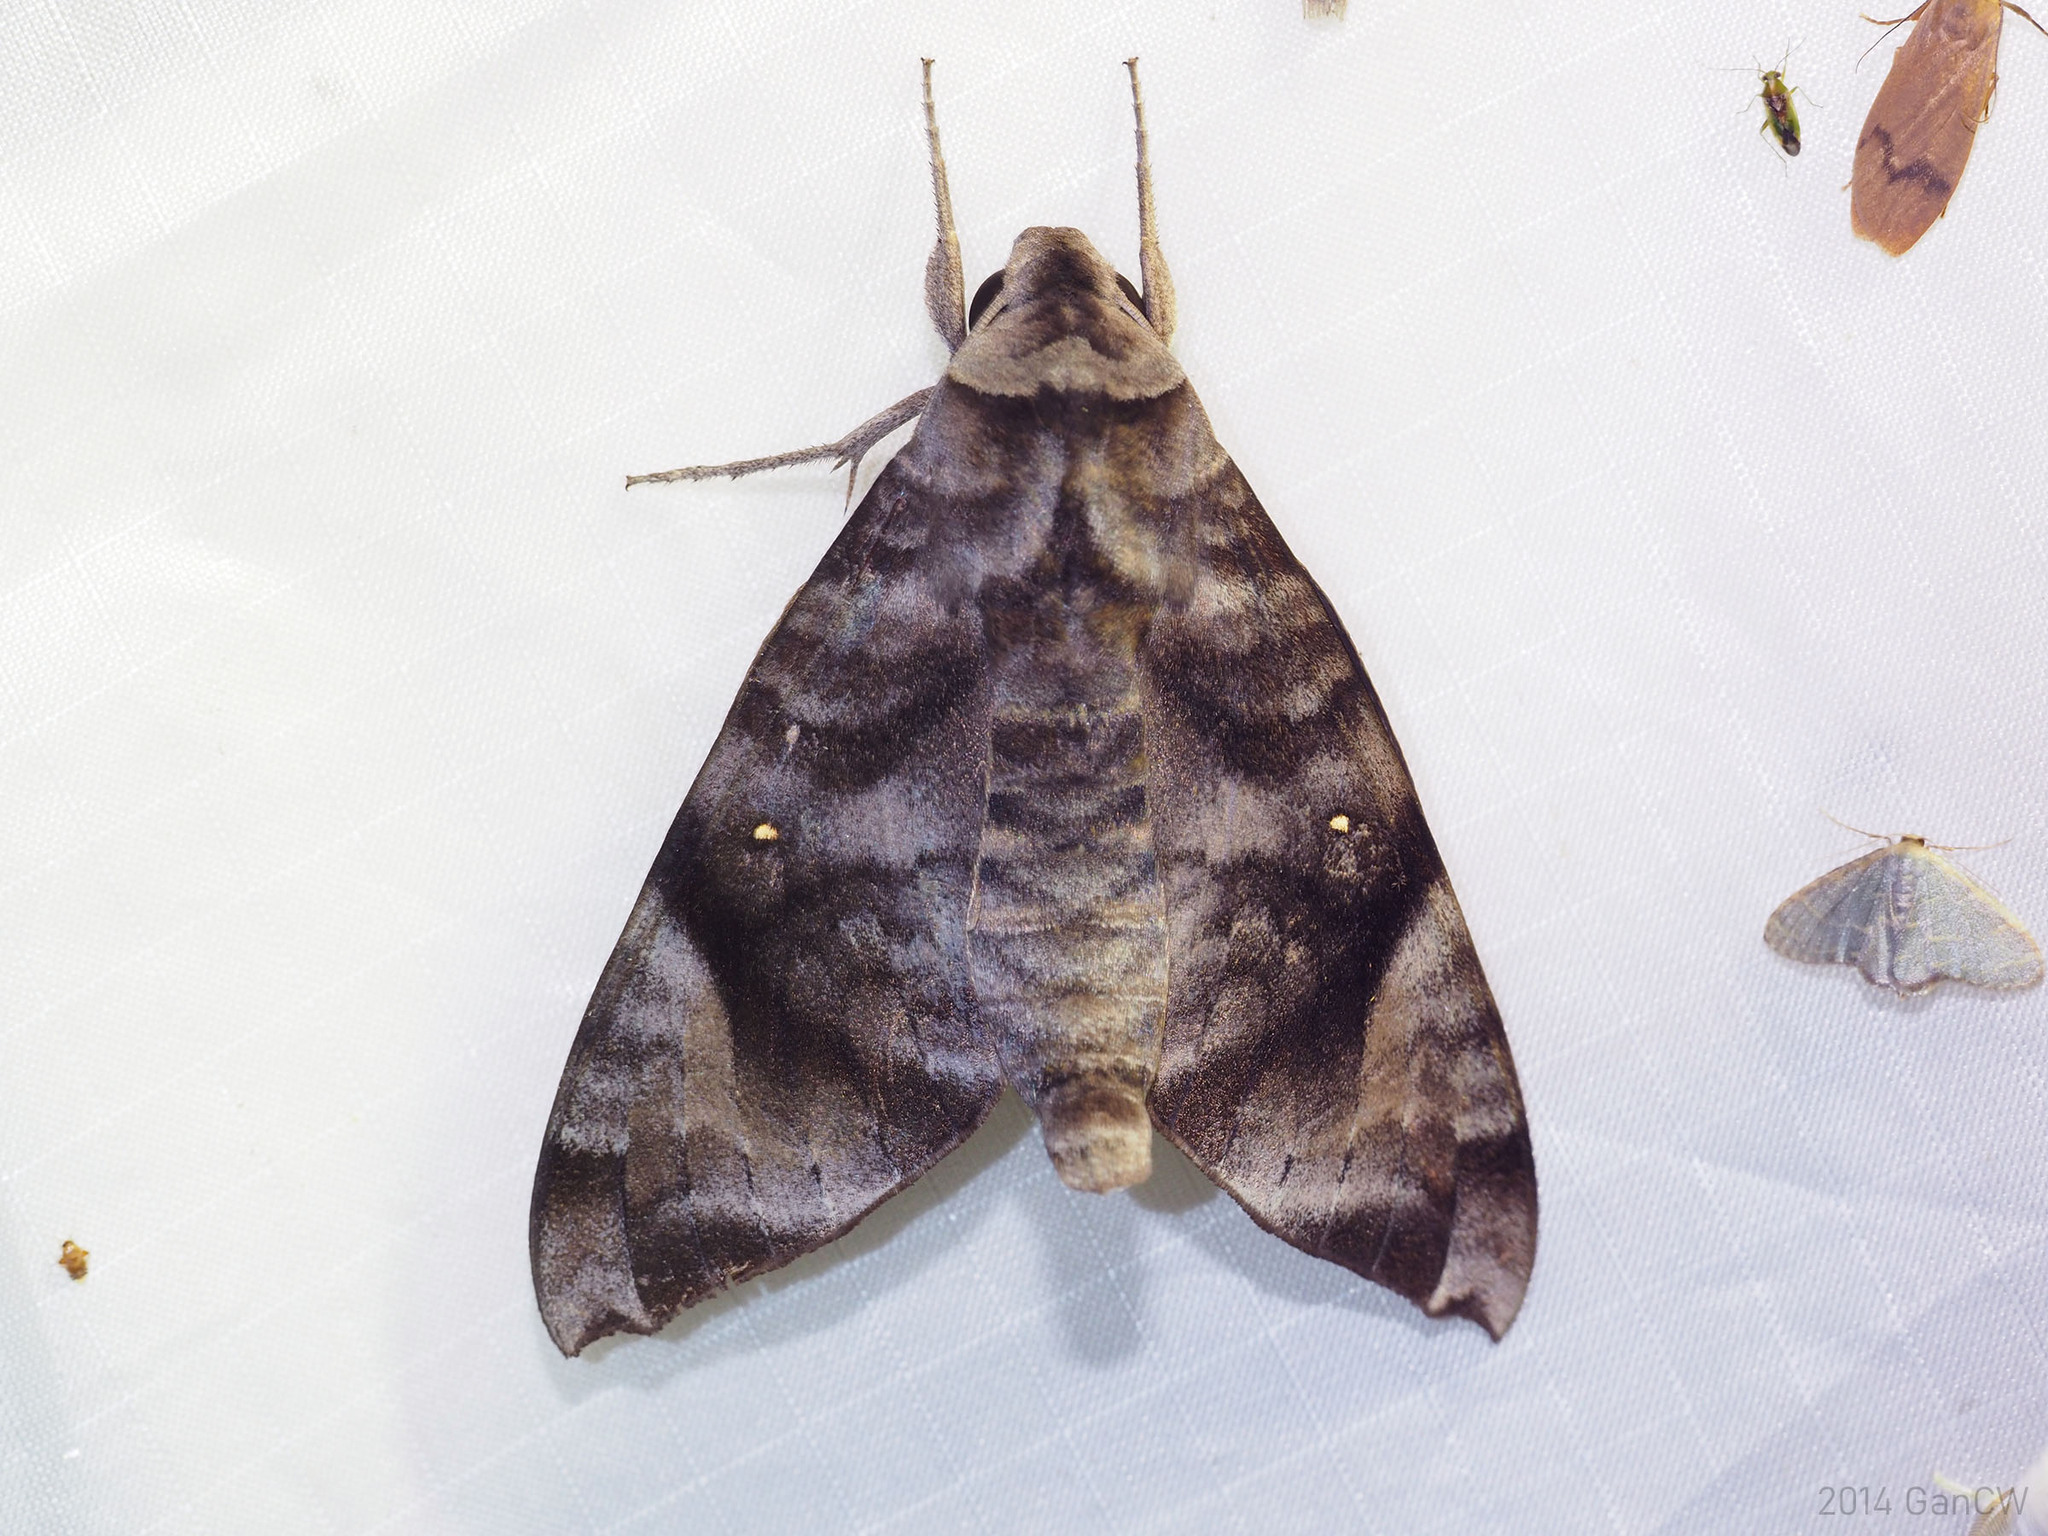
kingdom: Animalia
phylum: Arthropoda
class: Insecta
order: Lepidoptera
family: Sphingidae
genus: Acosmeryx
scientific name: Acosmeryx pseudonaga
